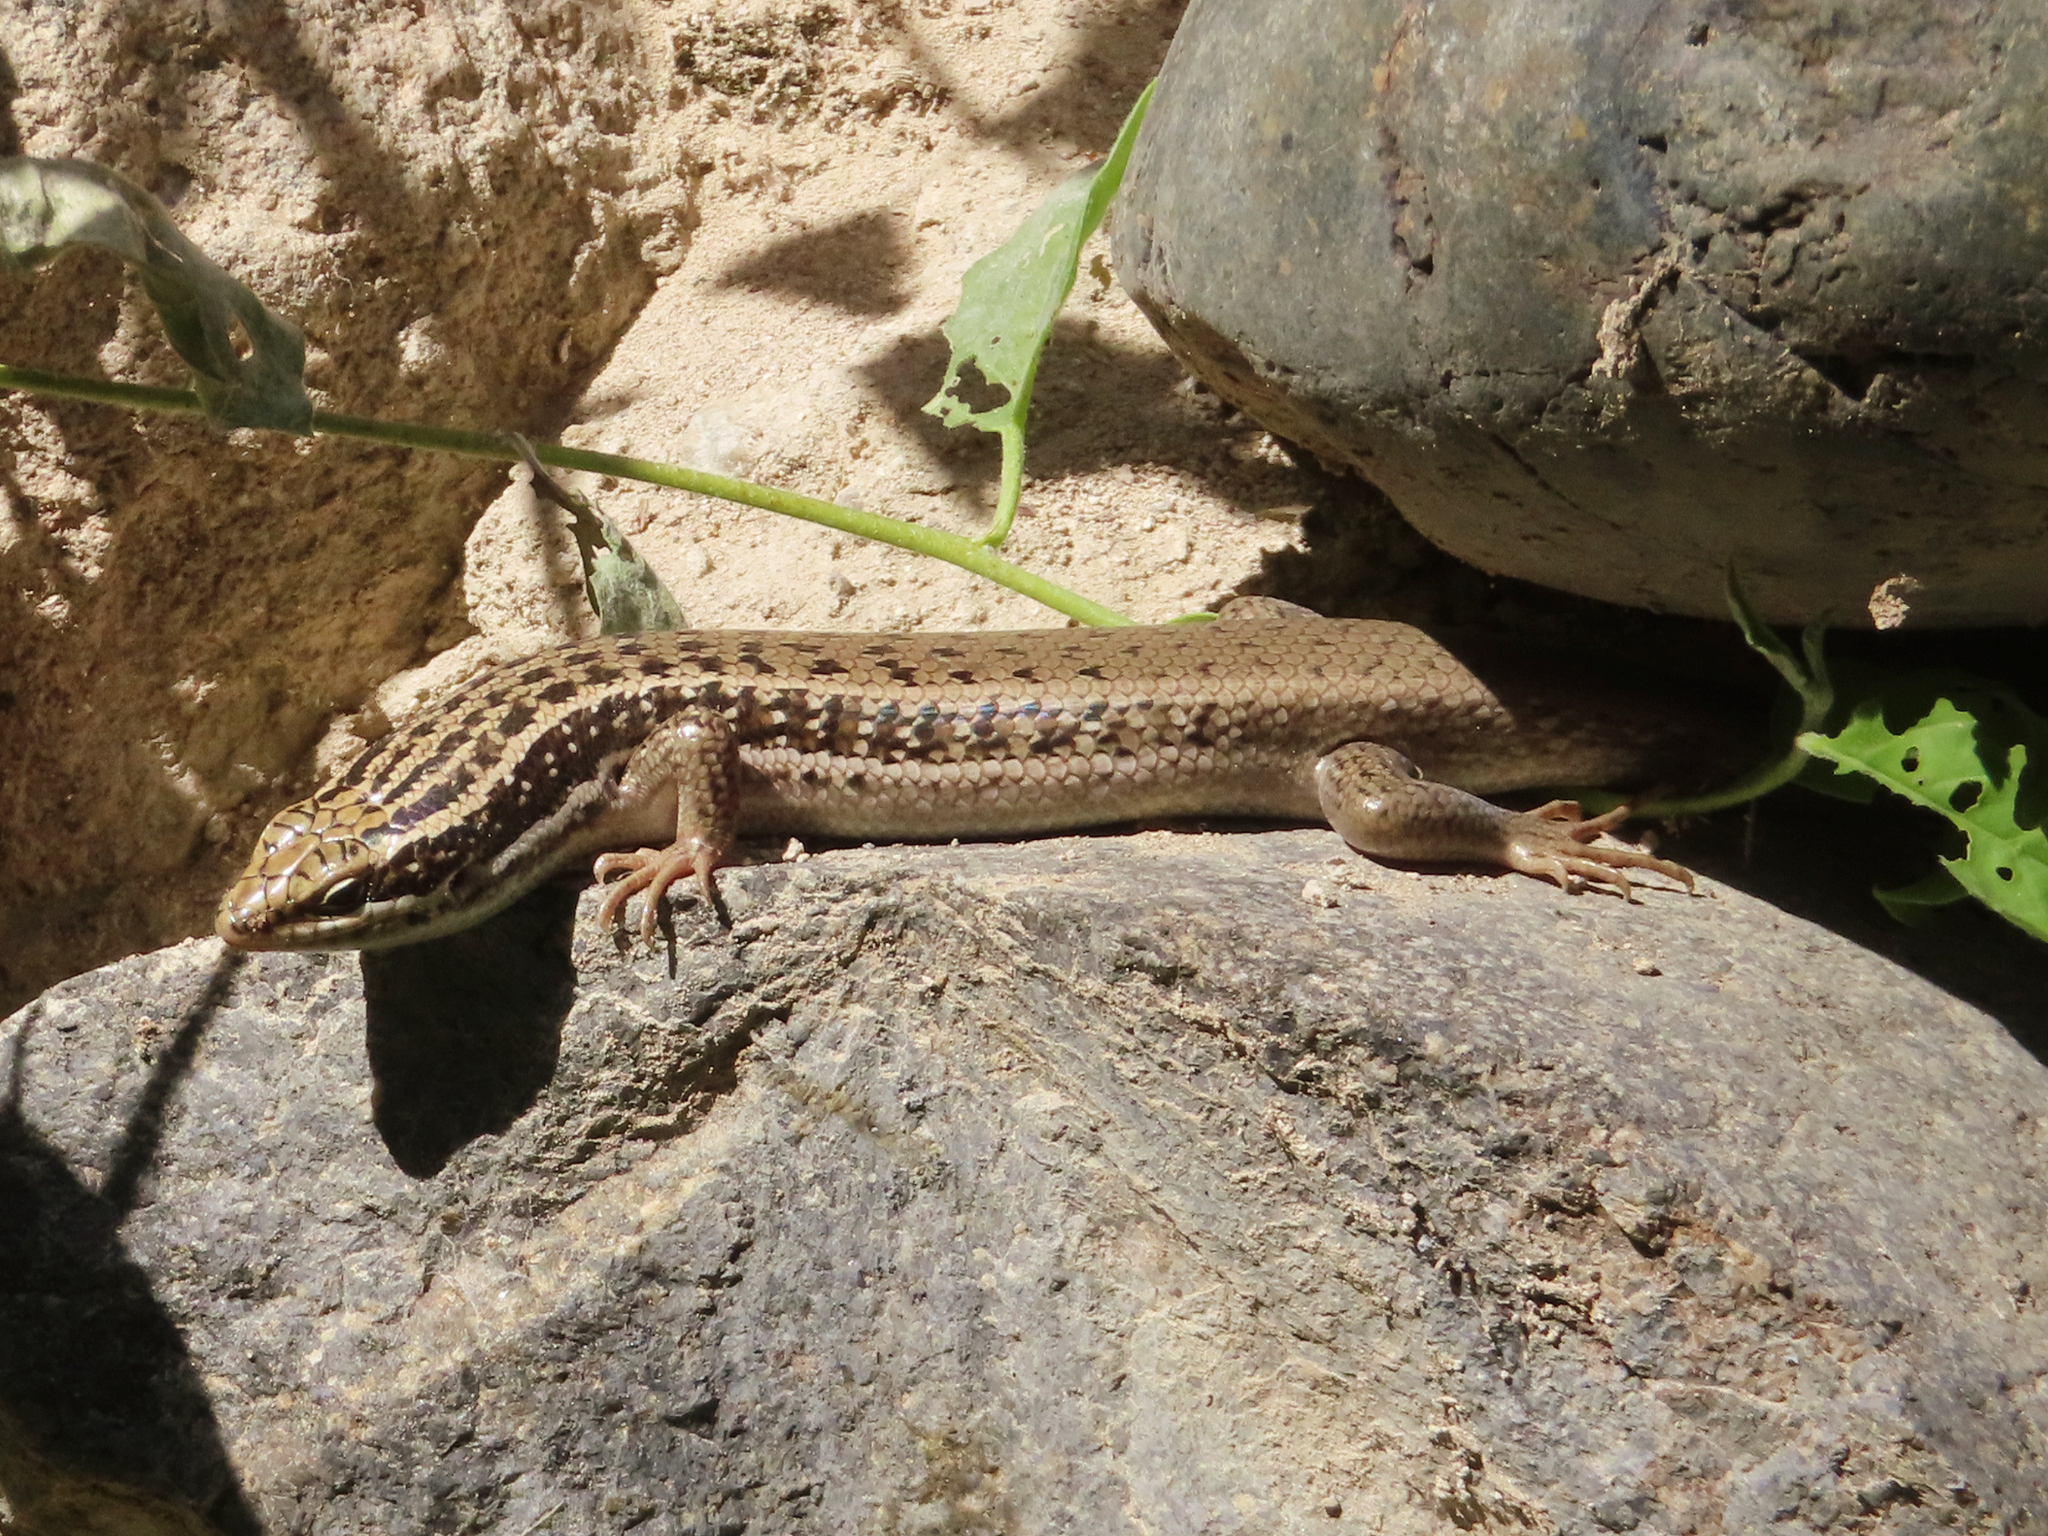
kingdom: Animalia
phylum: Chordata
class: Squamata
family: Scincidae
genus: Heremites
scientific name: Heremites septemtaeniatus
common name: Golden grass mabuya
